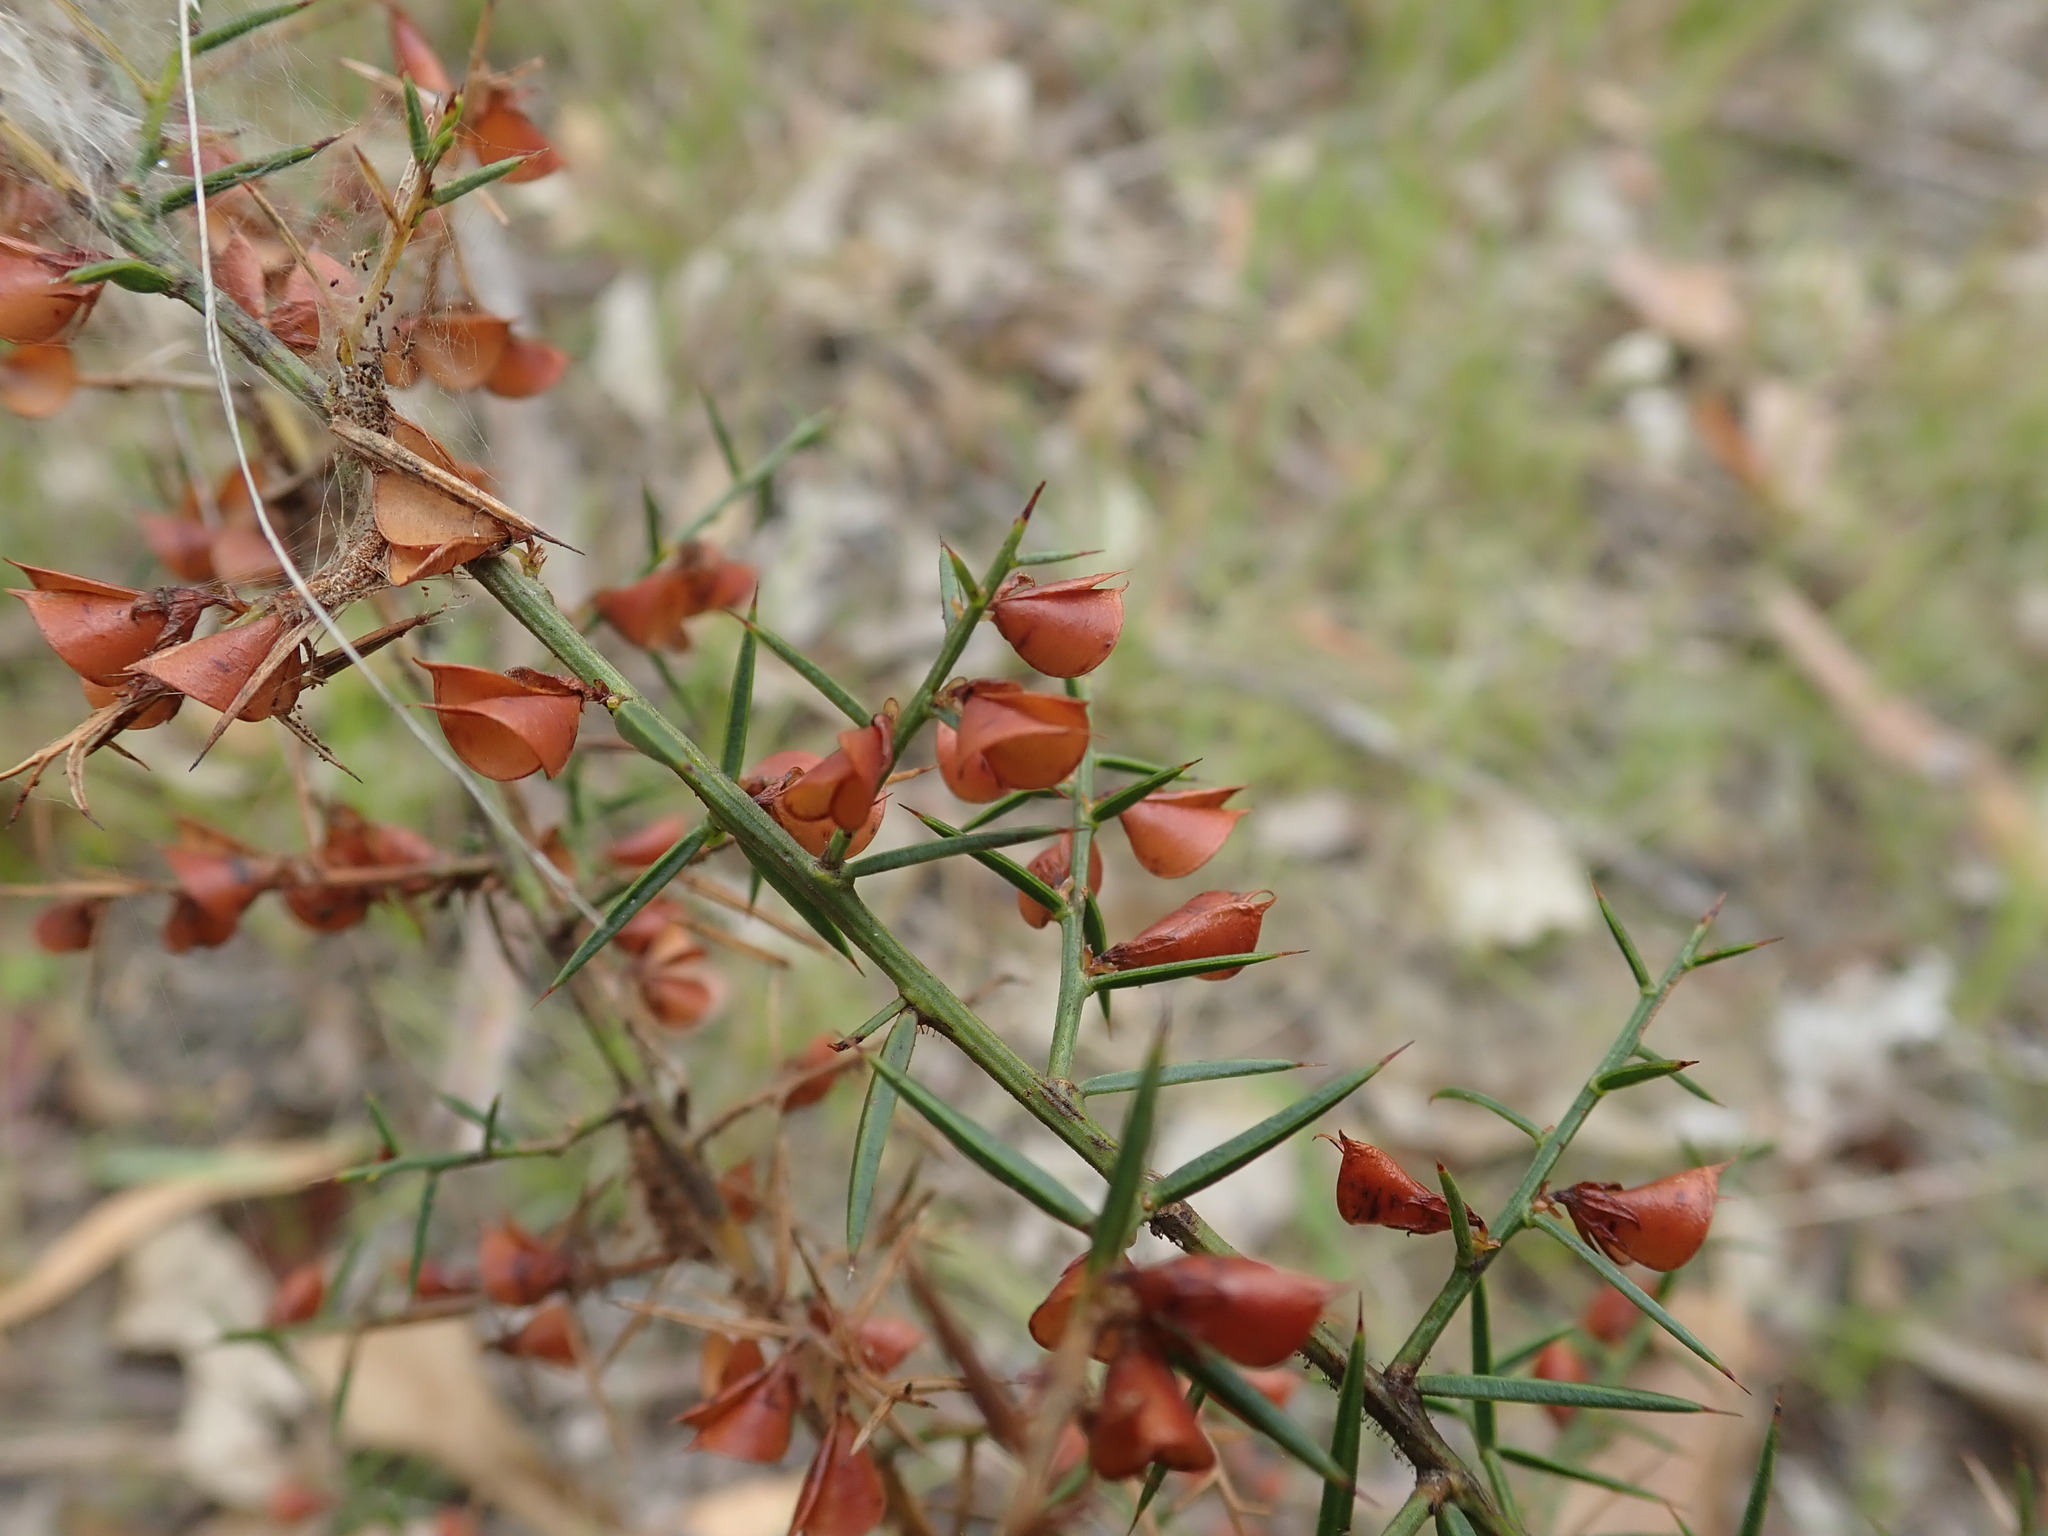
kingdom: Plantae
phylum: Tracheophyta
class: Magnoliopsida
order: Fabales
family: Fabaceae
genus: Daviesia
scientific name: Daviesia ulicifolia
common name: Gorse bitter-pea
